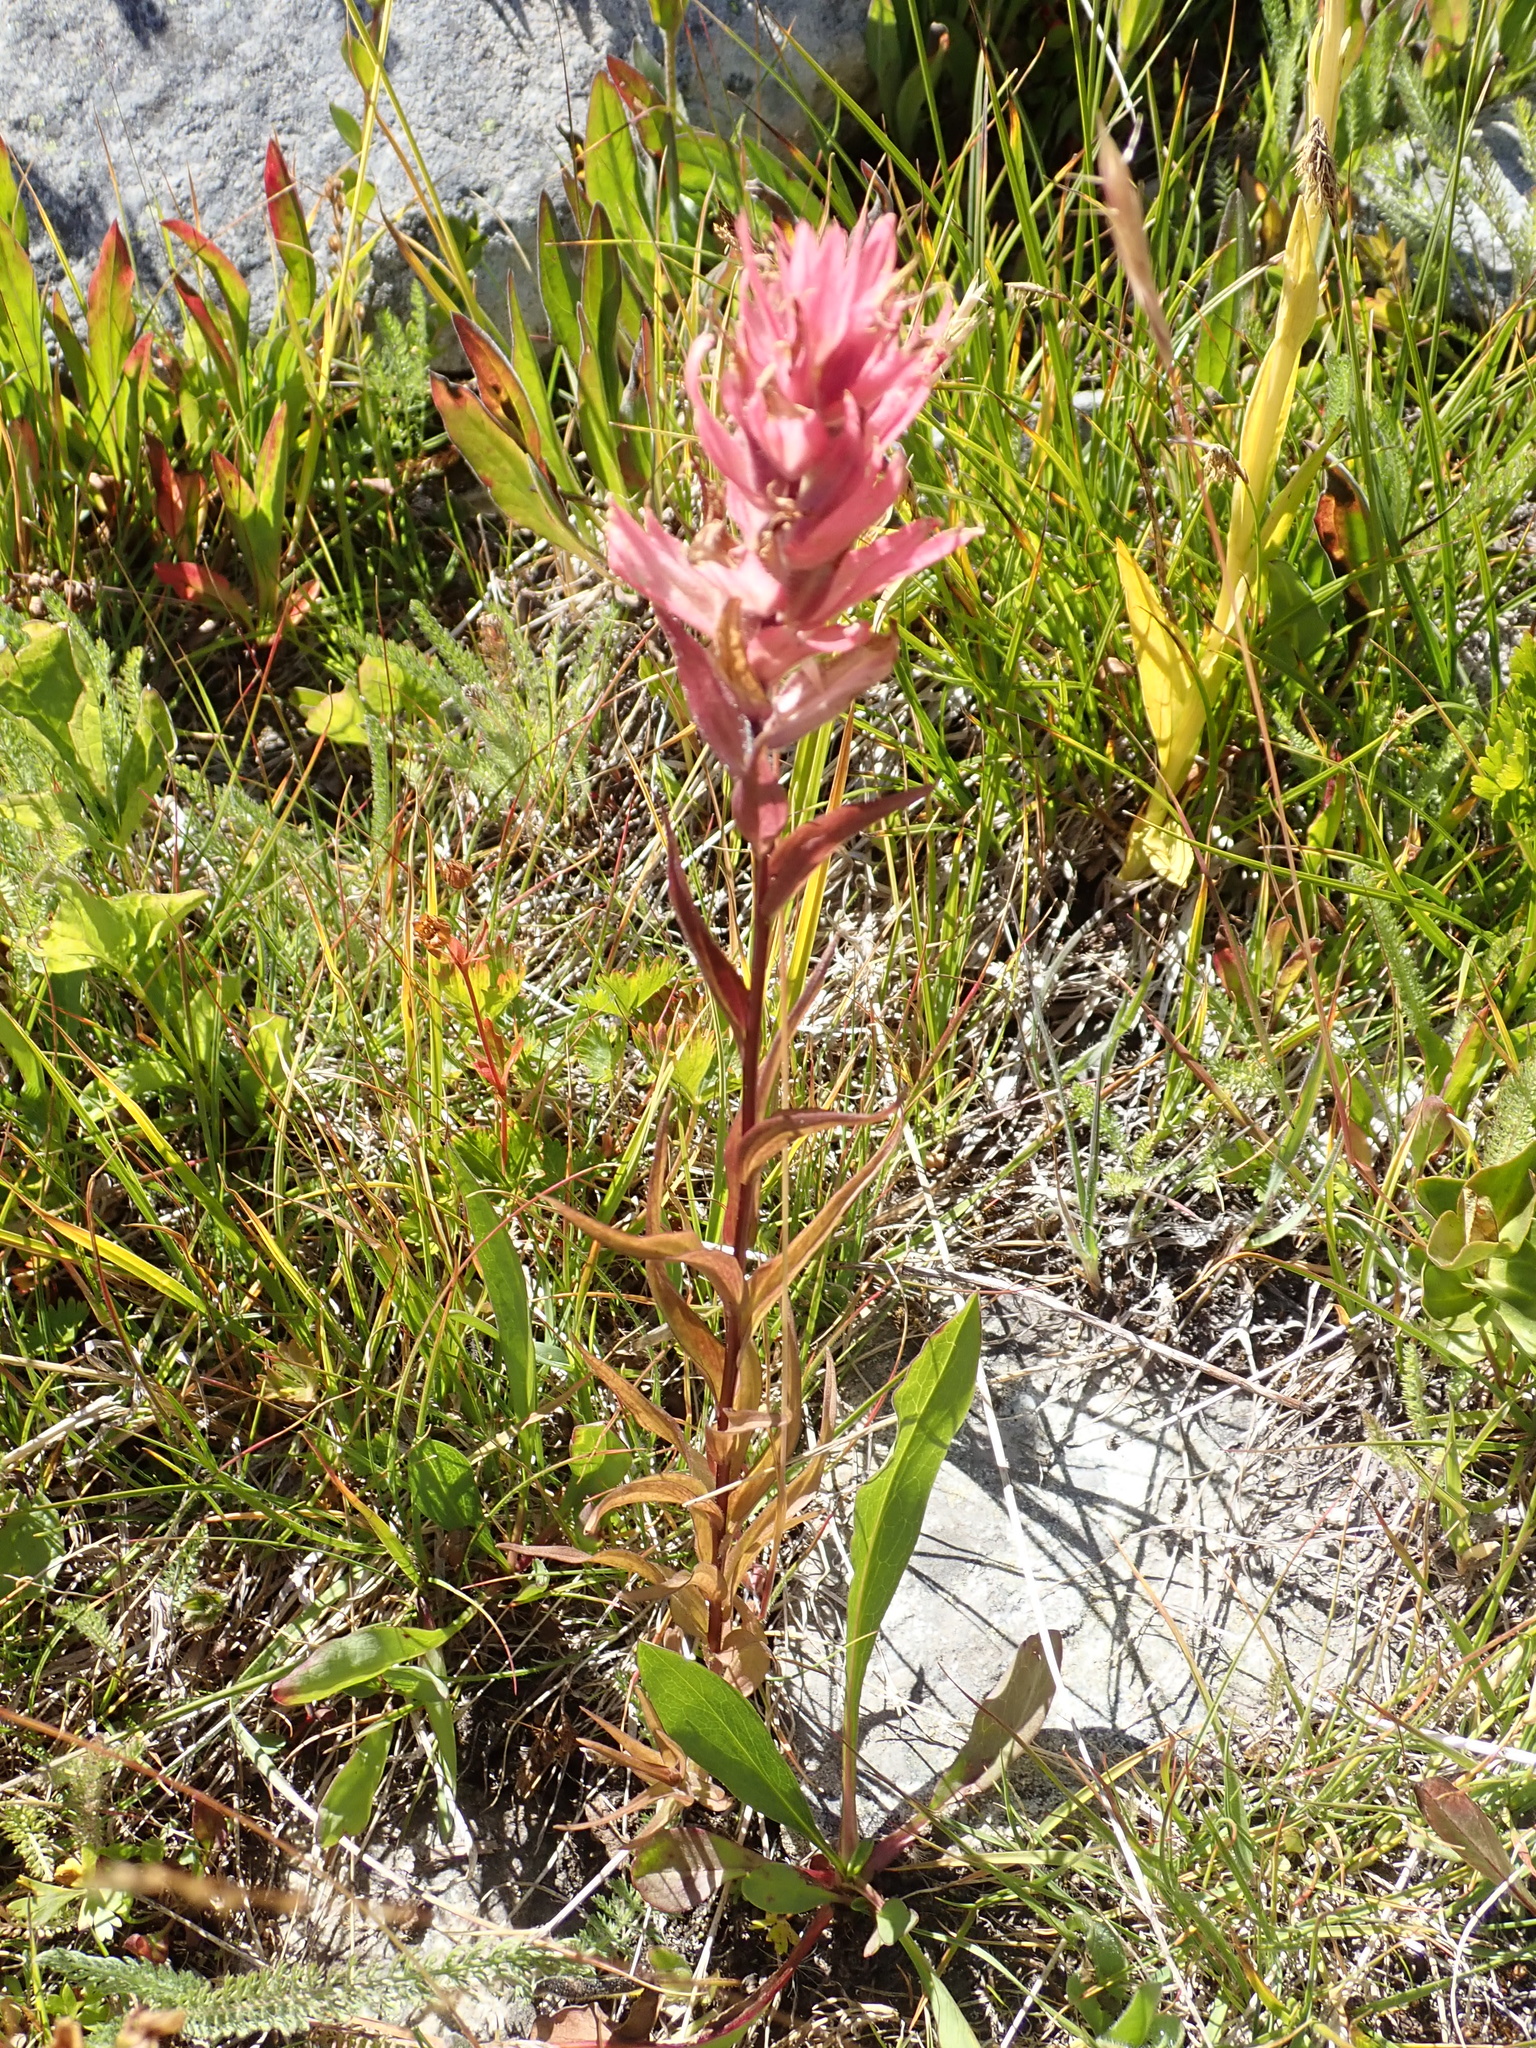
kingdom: Plantae
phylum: Tracheophyta
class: Magnoliopsida
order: Lamiales
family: Orobanchaceae
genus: Castilleja
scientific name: Castilleja miniata
